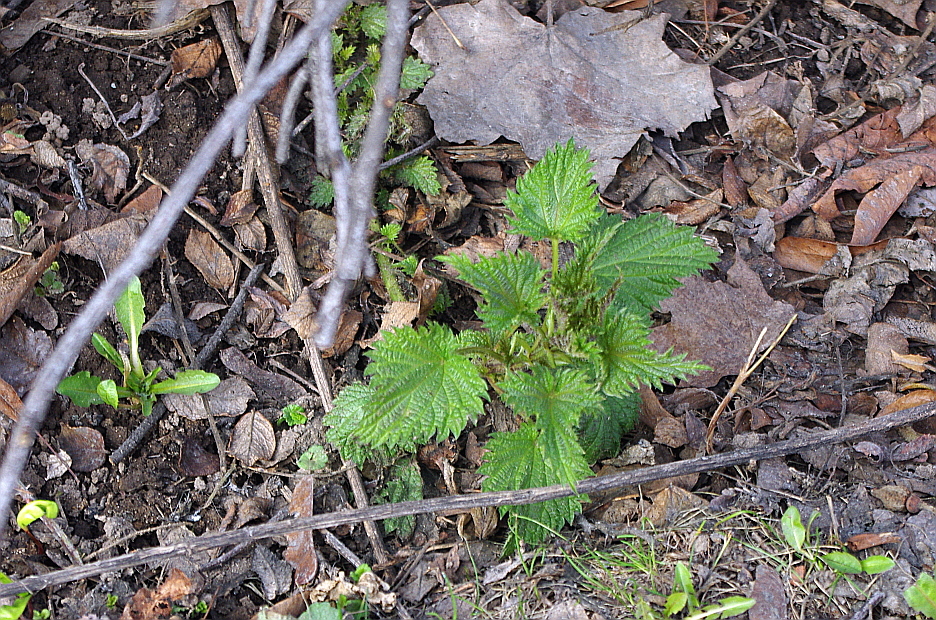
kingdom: Plantae
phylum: Tracheophyta
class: Magnoliopsida
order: Rosales
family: Urticaceae
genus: Urtica
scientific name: Urtica dioica
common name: Common nettle
